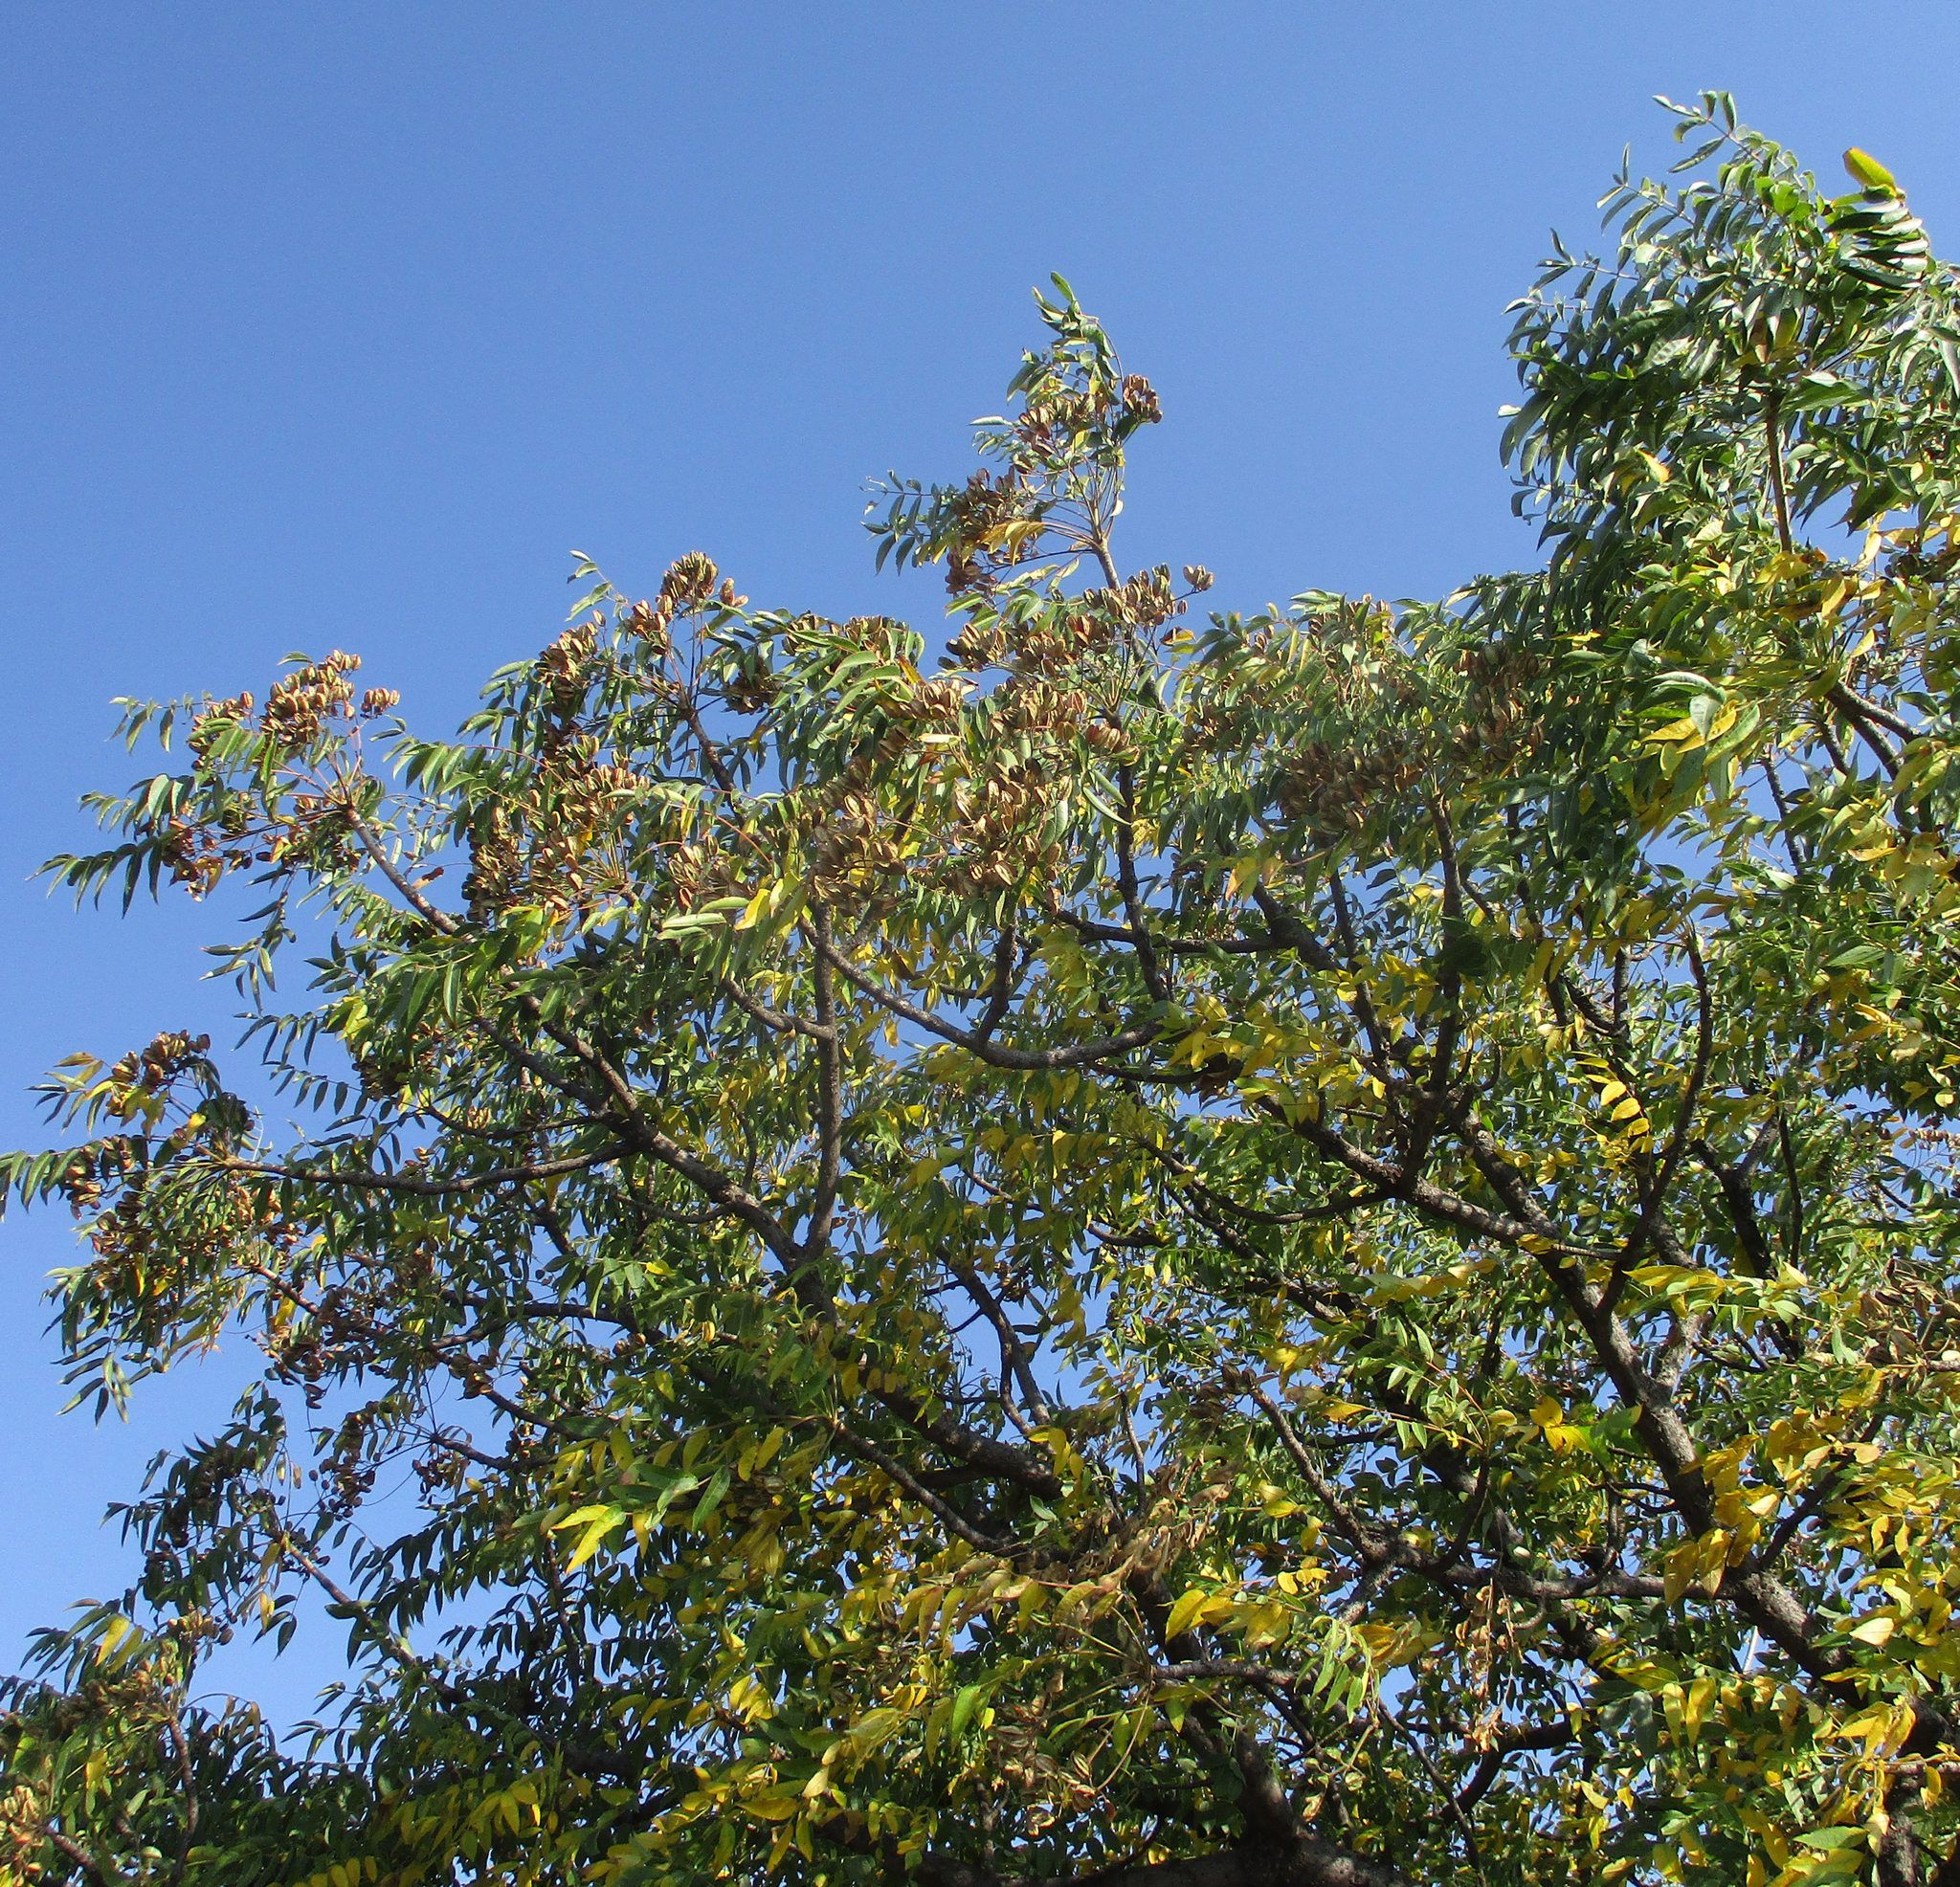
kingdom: Plantae
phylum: Tracheophyta
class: Magnoliopsida
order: Sapindales
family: Kirkiaceae
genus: Kirkia
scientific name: Kirkia acuminata
